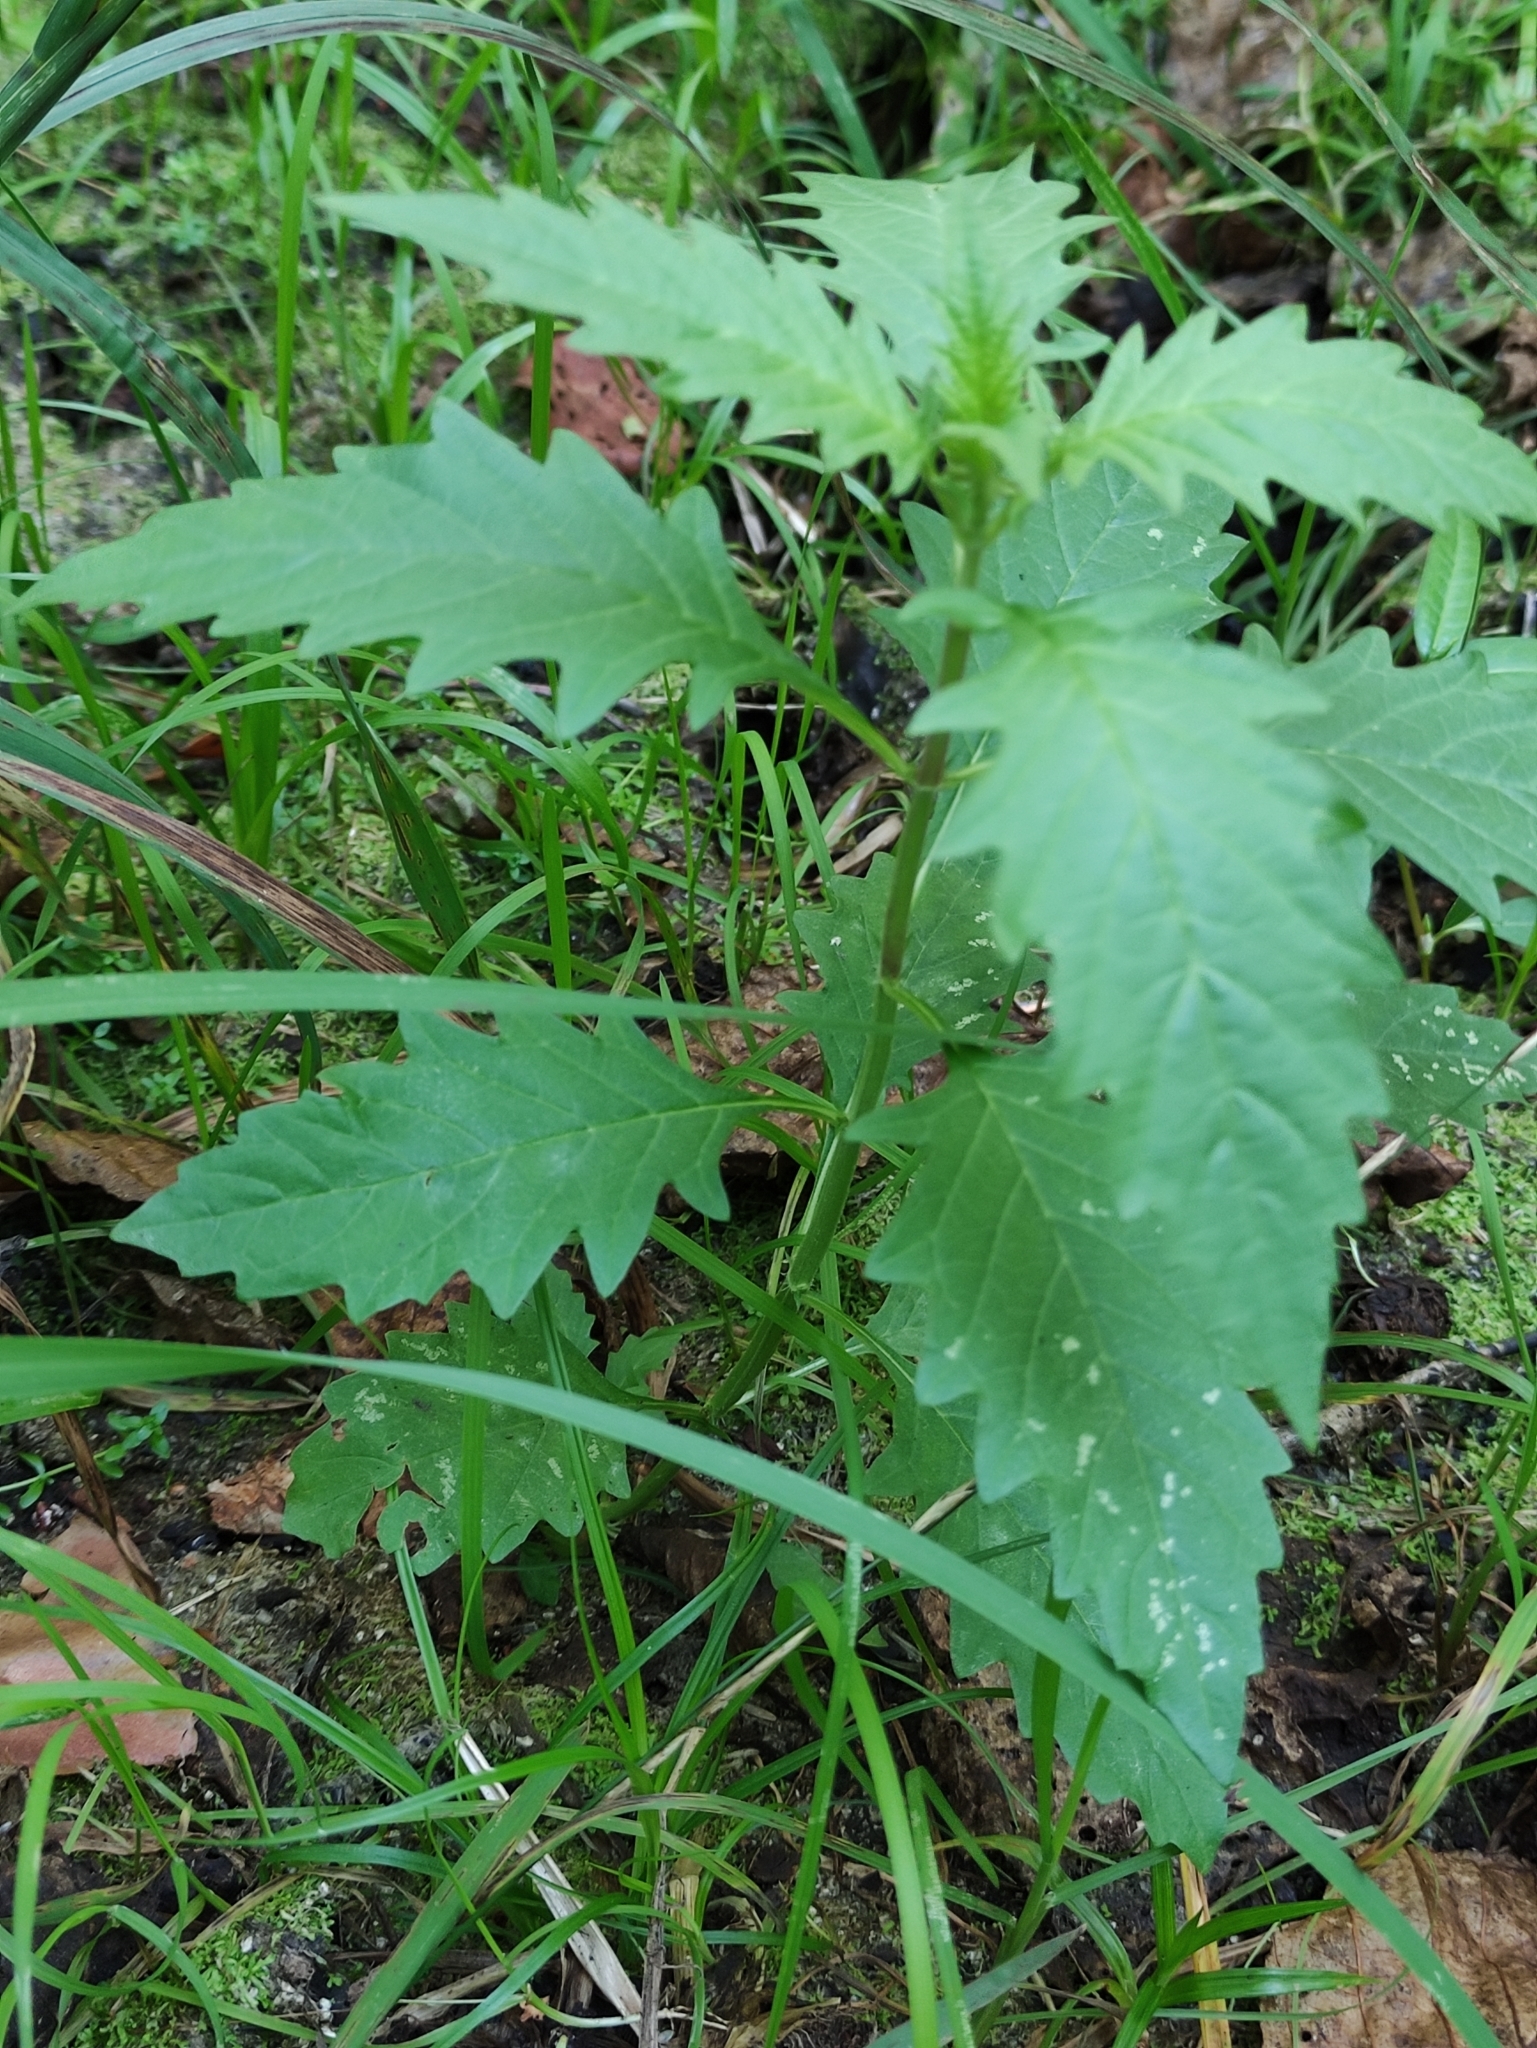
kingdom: Plantae
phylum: Tracheophyta
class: Magnoliopsida
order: Lamiales
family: Lamiaceae
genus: Lycopus
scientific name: Lycopus europaeus
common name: European bugleweed
